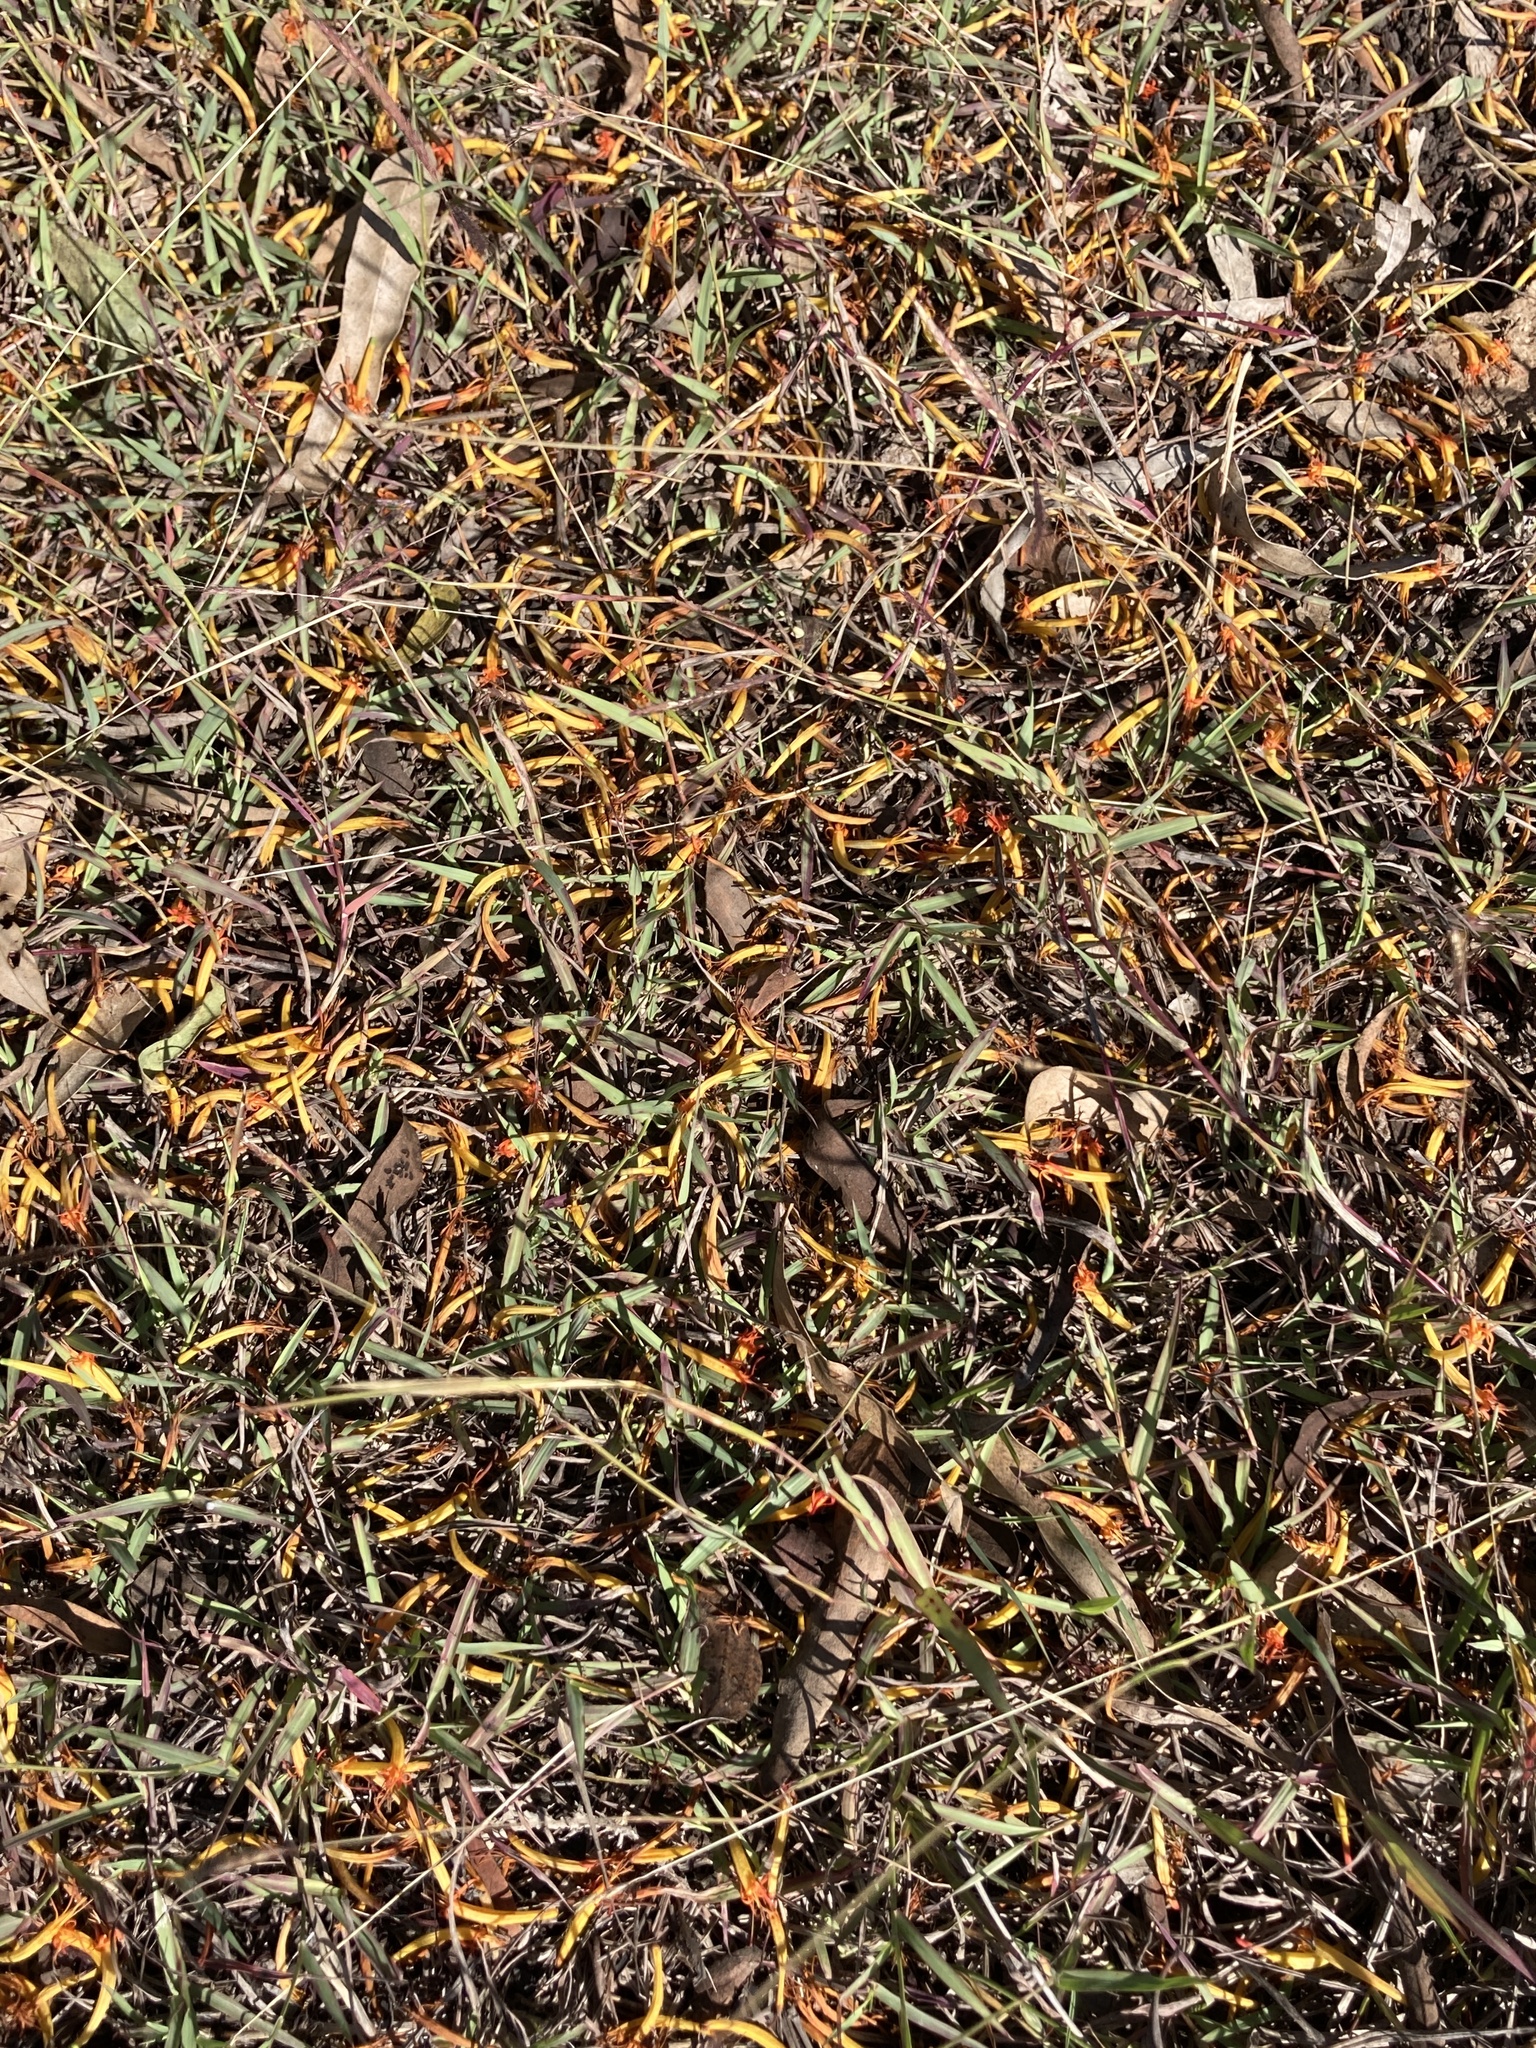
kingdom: Plantae
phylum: Tracheophyta
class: Magnoliopsida
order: Santalales
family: Loranthaceae
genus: Dendrophthoe
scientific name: Dendrophthoe glabrescens
